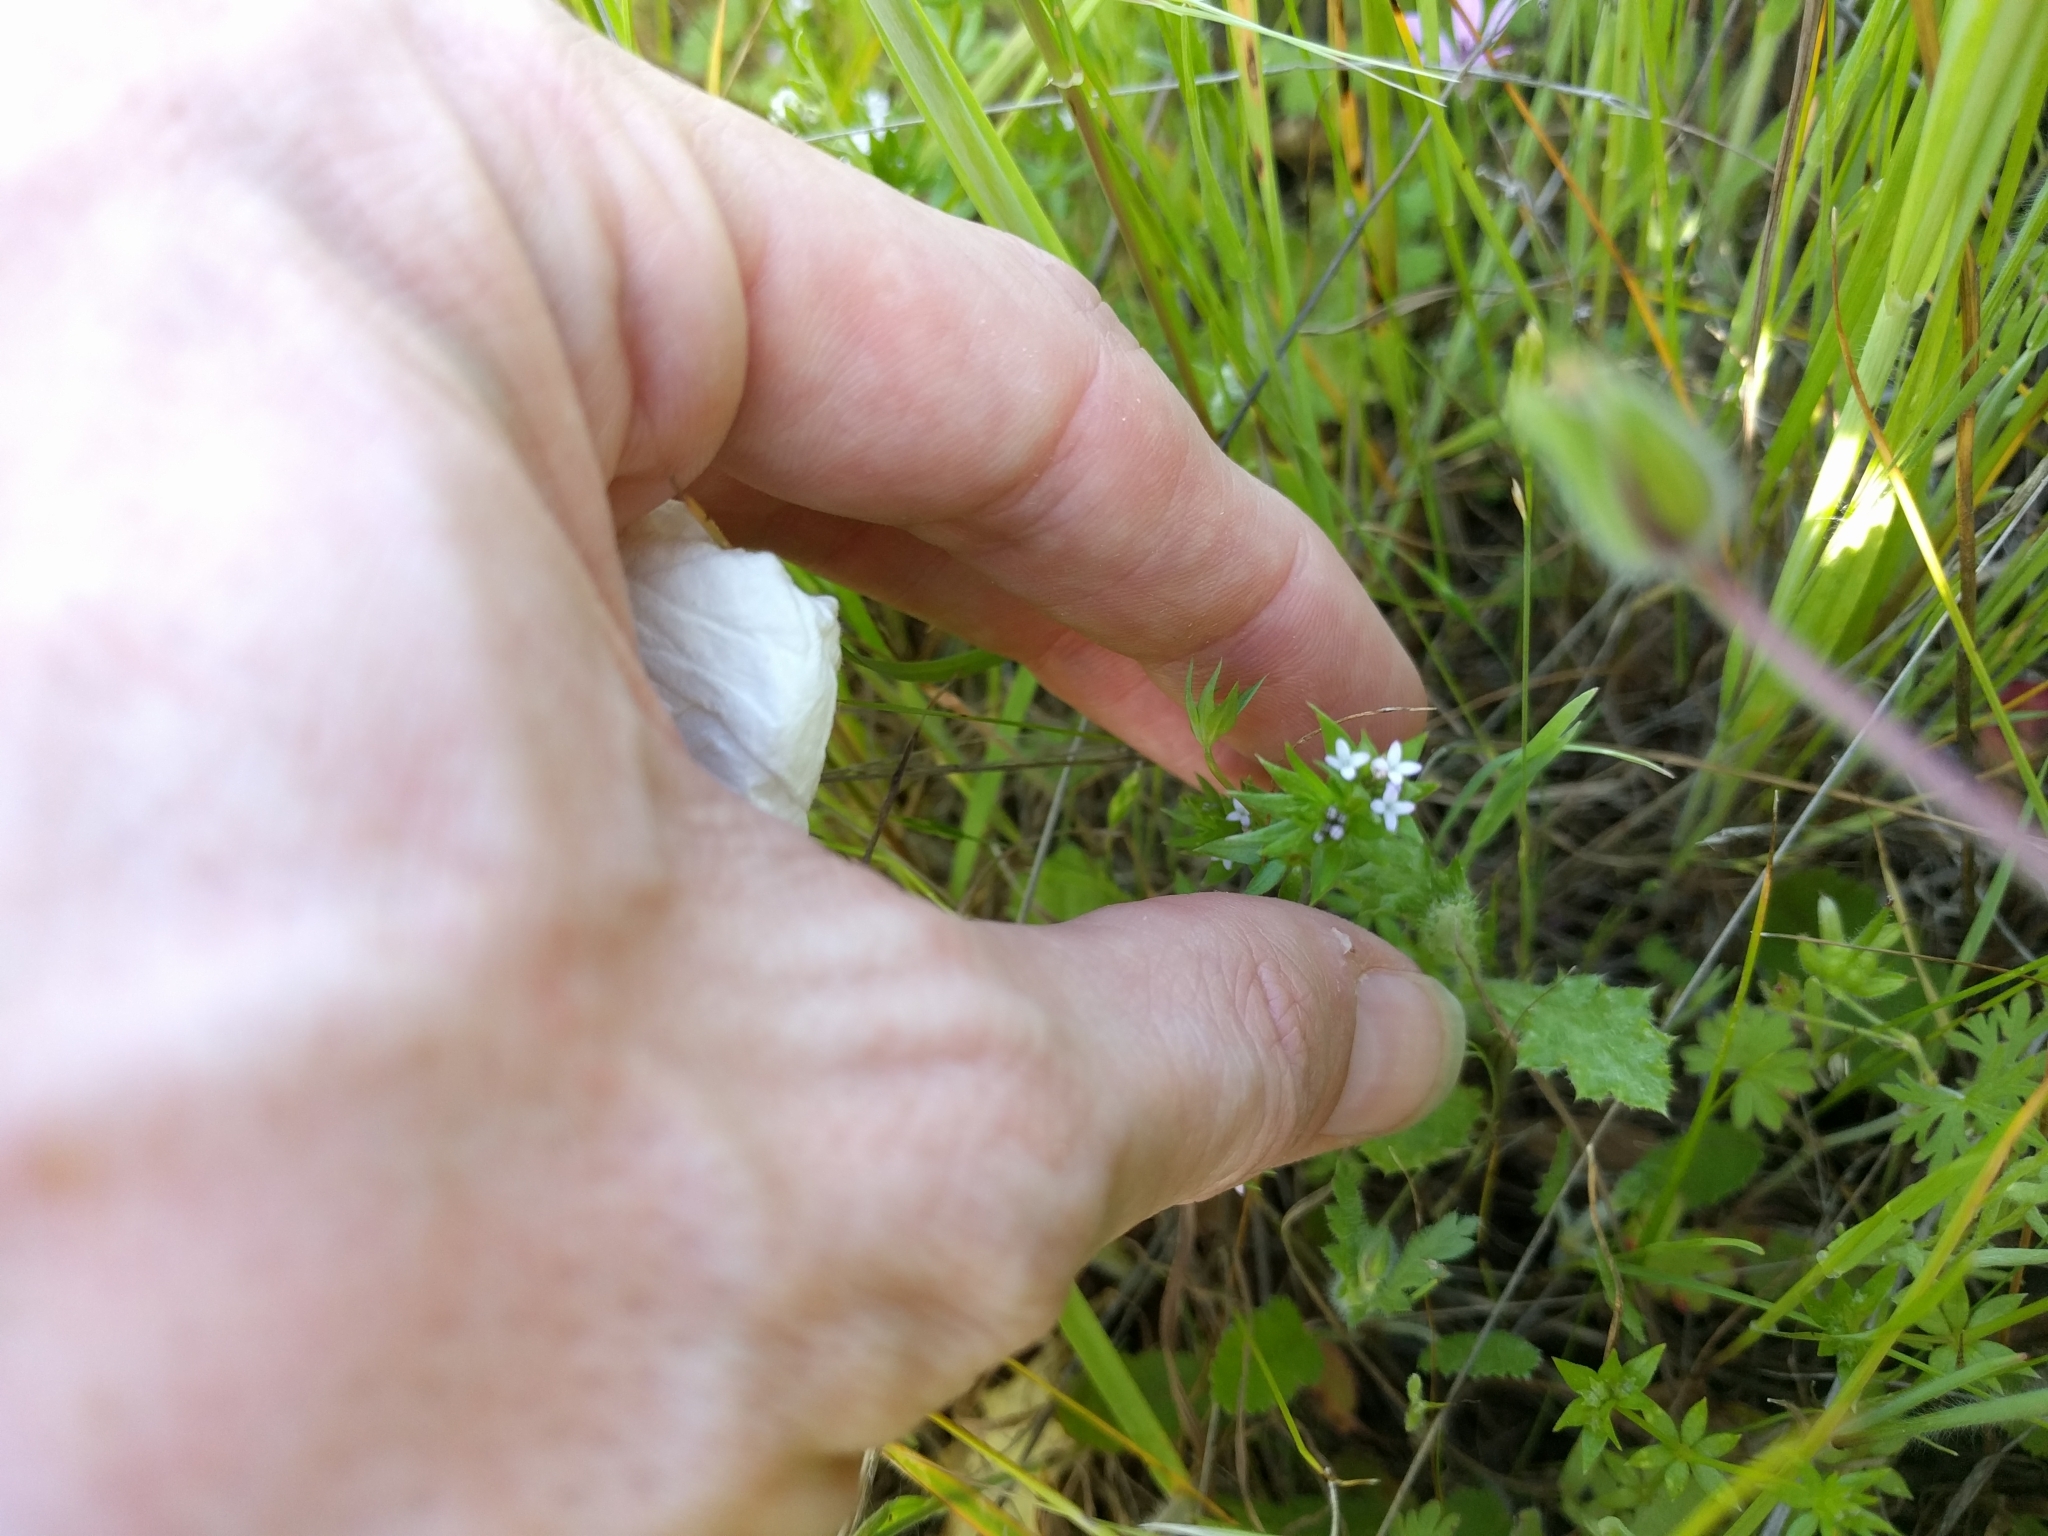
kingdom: Plantae
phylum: Tracheophyta
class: Magnoliopsida
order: Gentianales
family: Rubiaceae
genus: Sherardia
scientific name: Sherardia arvensis
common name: Field madder
